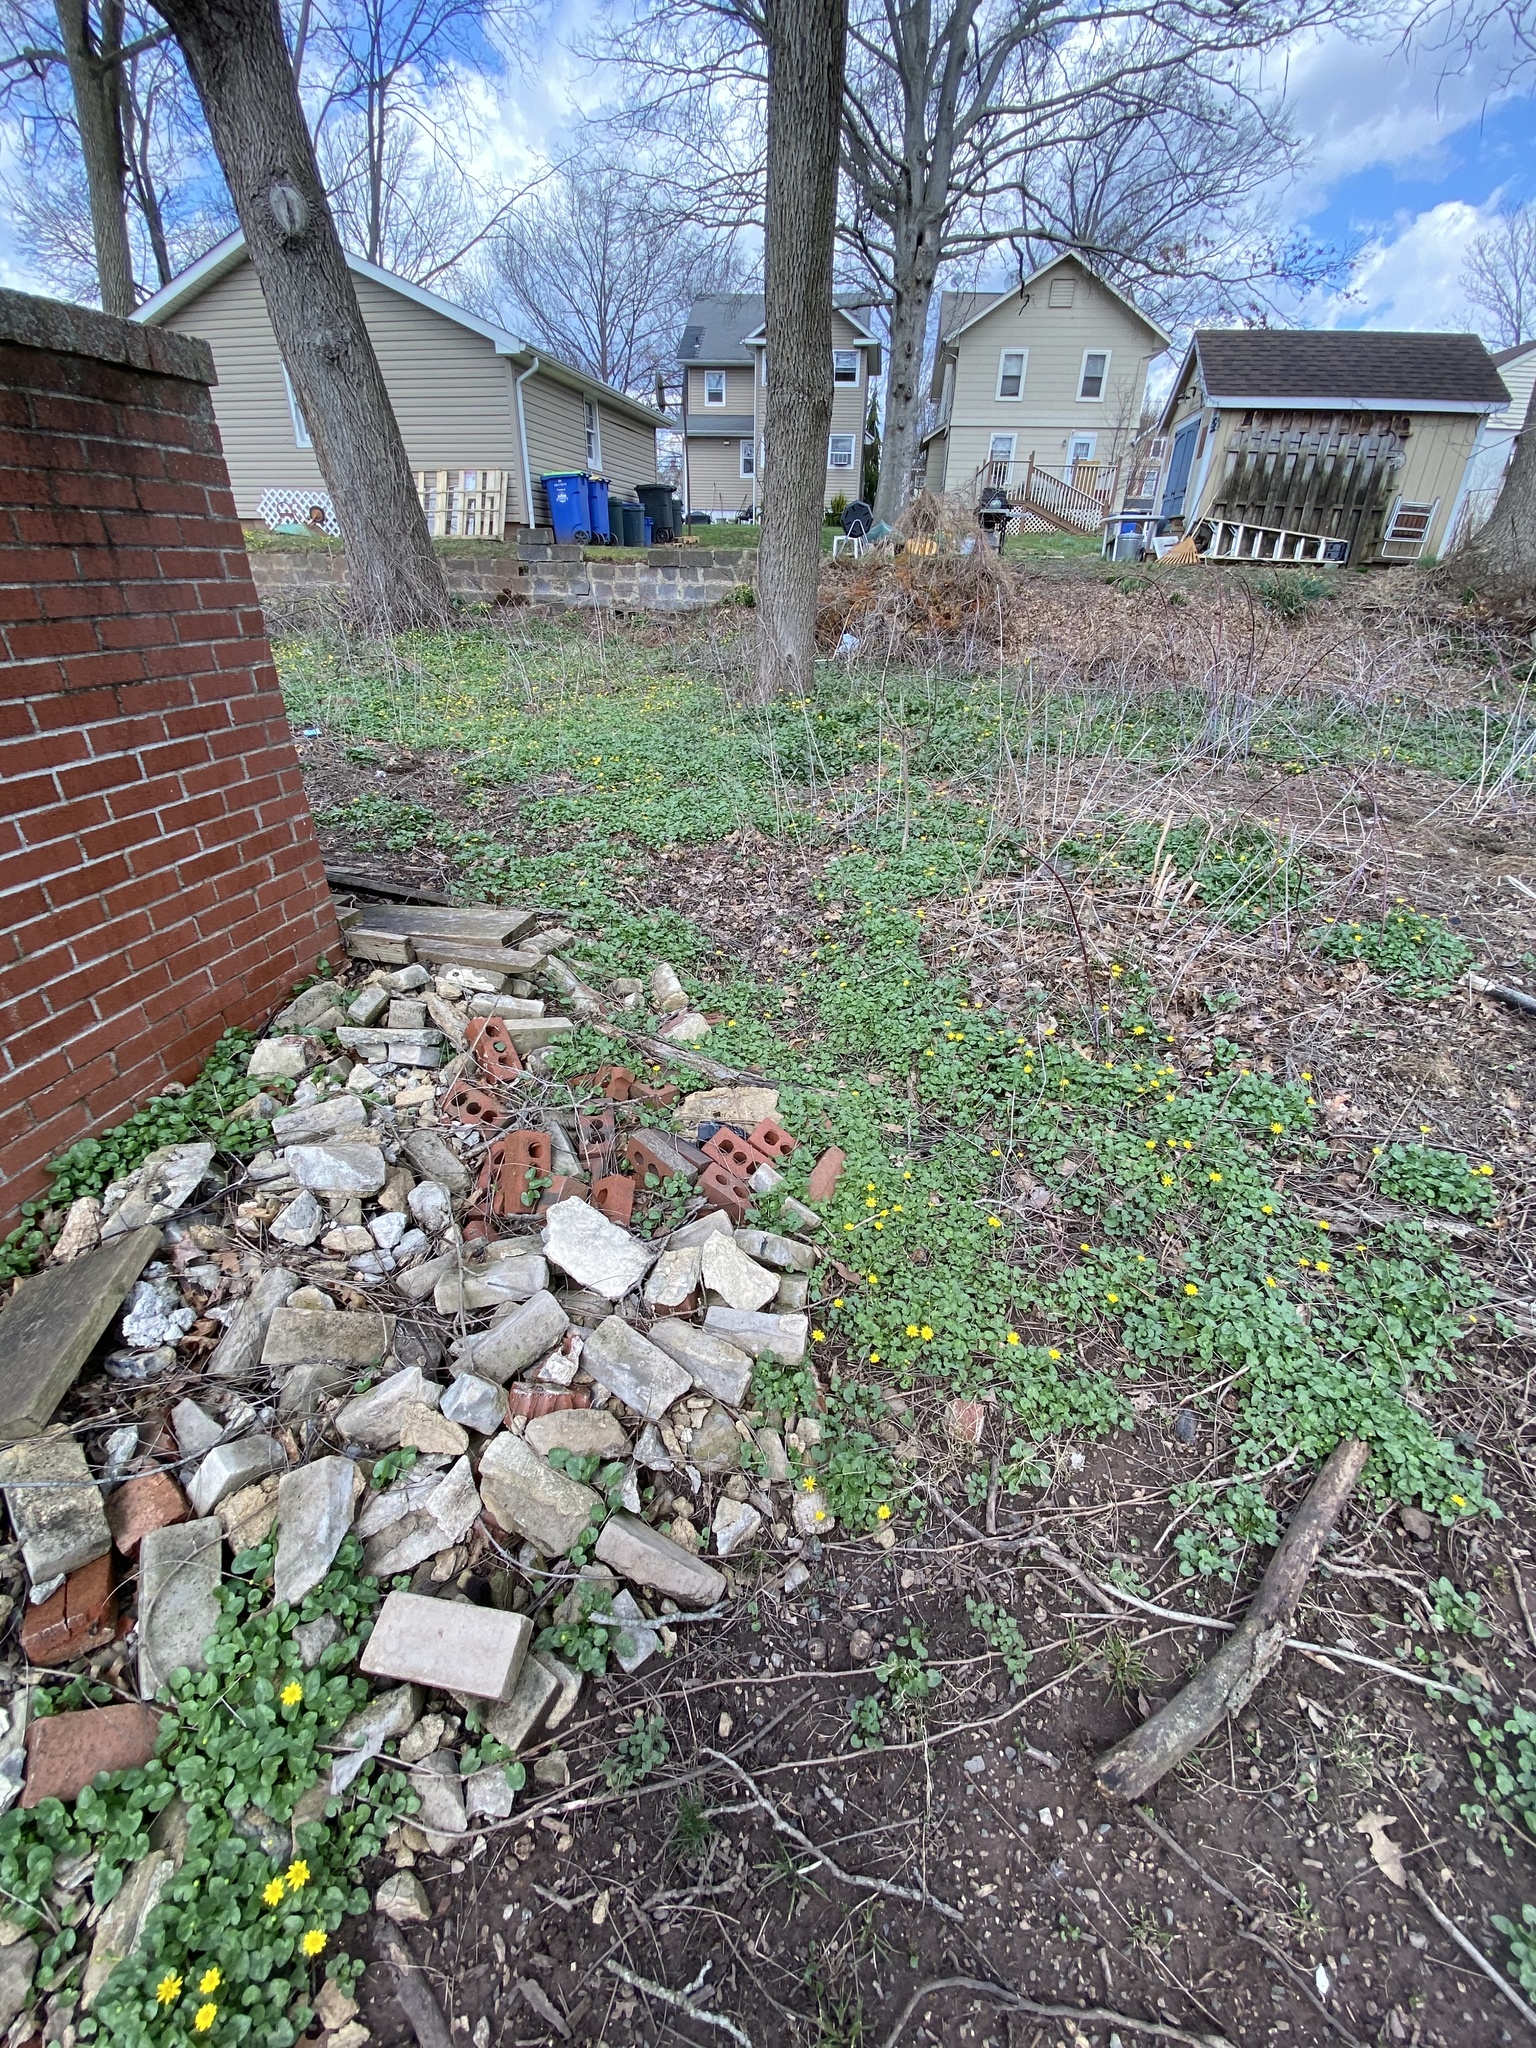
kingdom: Plantae
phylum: Tracheophyta
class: Magnoliopsida
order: Ranunculales
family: Ranunculaceae
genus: Ficaria
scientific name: Ficaria verna
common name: Lesser celandine
